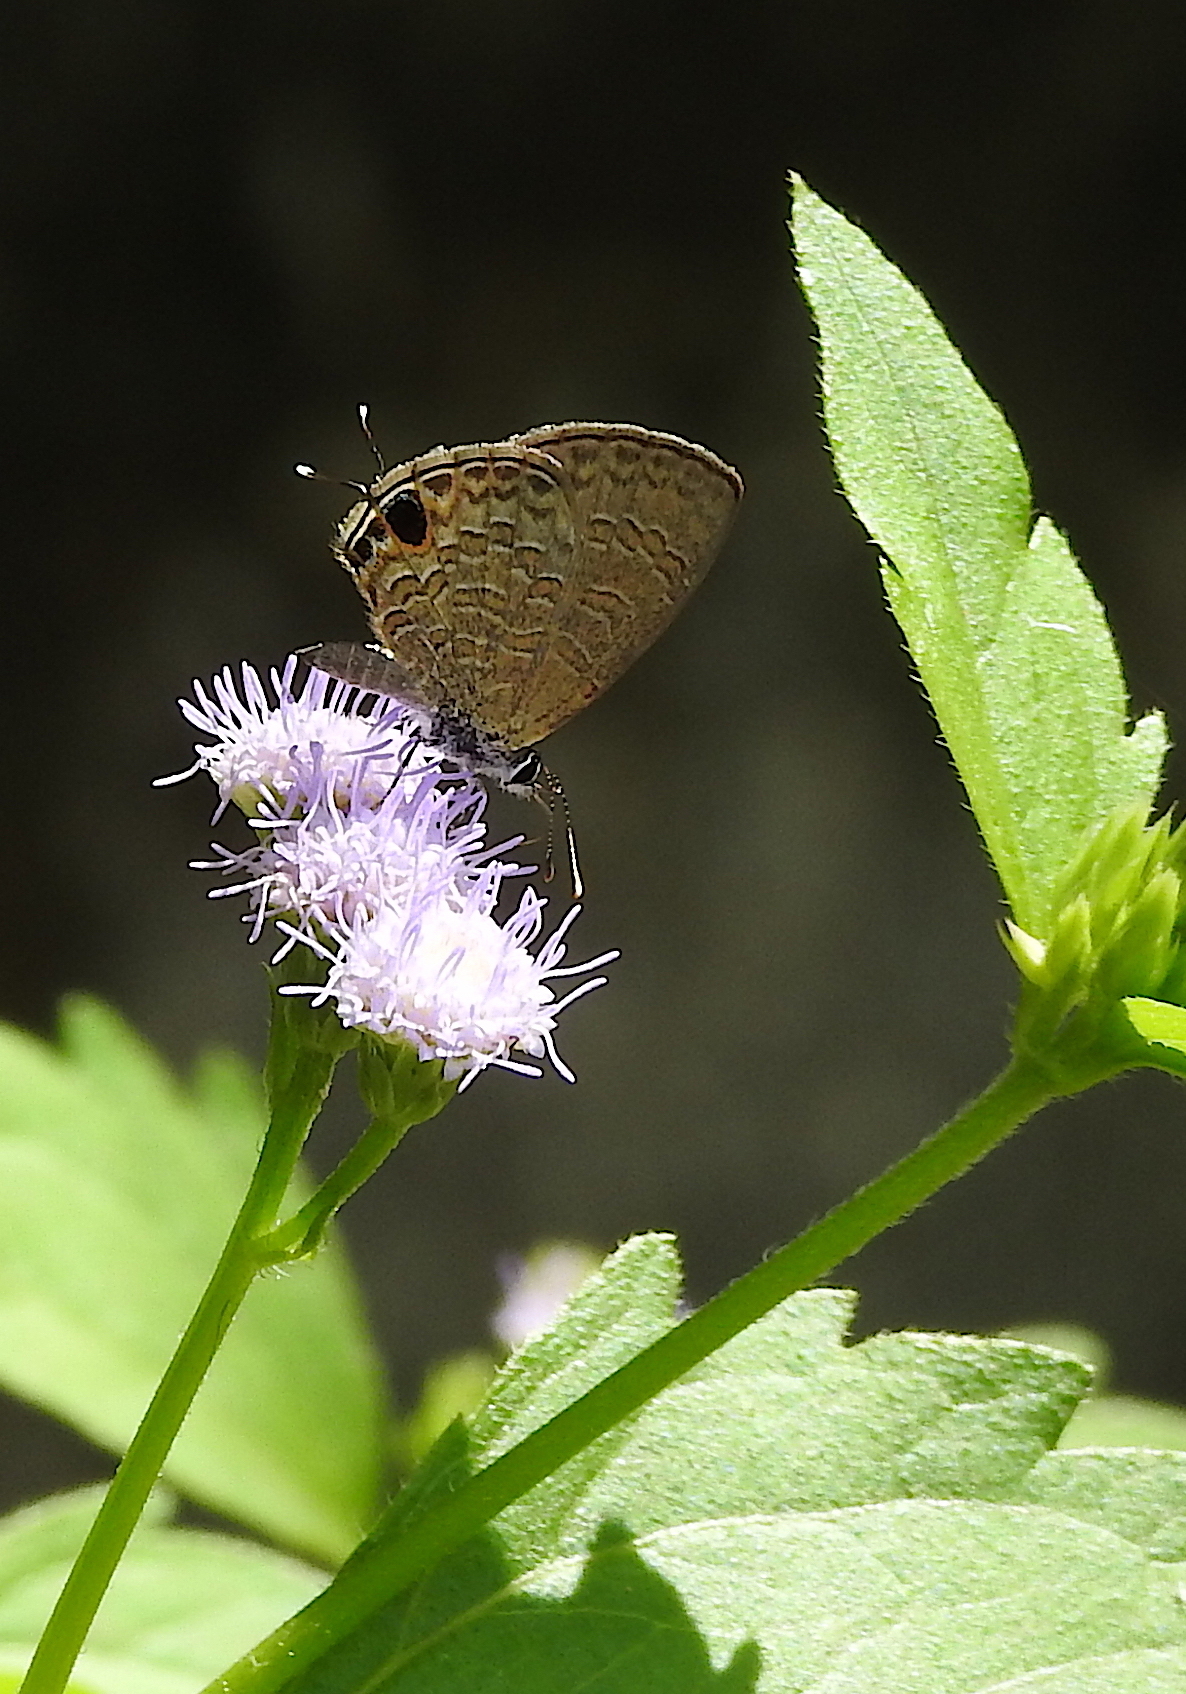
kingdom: Animalia
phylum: Arthropoda
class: Insecta
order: Lepidoptera
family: Lycaenidae
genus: Prosotas
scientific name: Prosotas nora
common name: Common line blue
